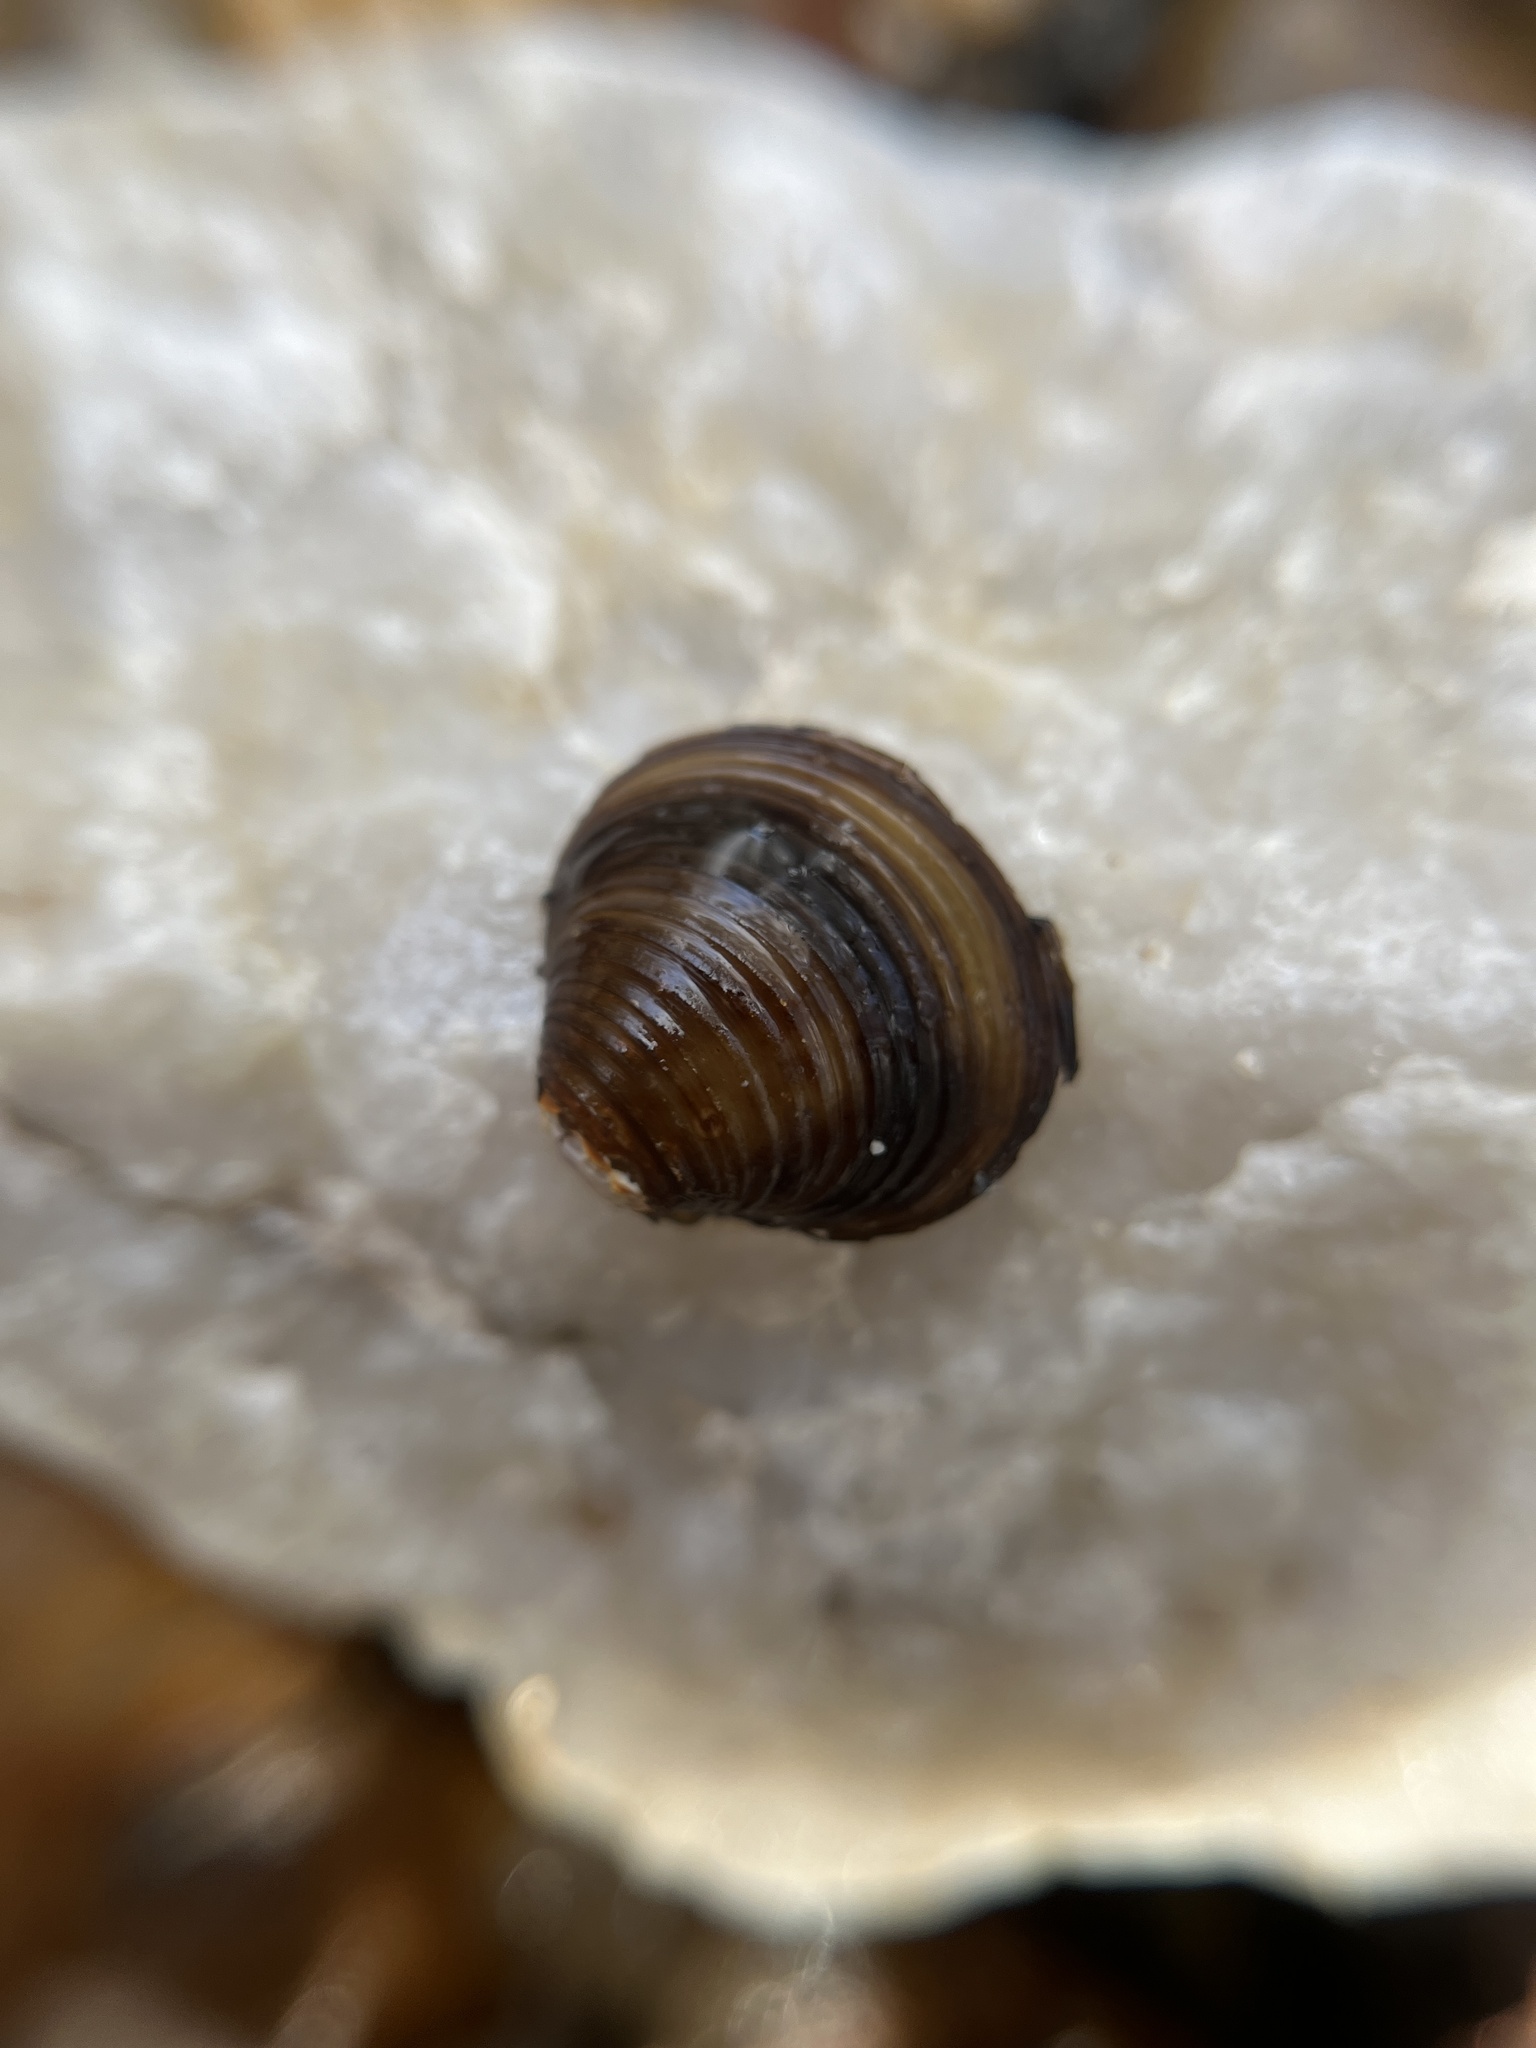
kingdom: Animalia
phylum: Mollusca
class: Bivalvia
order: Venerida
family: Cyrenidae
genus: Corbicula
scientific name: Corbicula fluminea
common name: Asian clam
